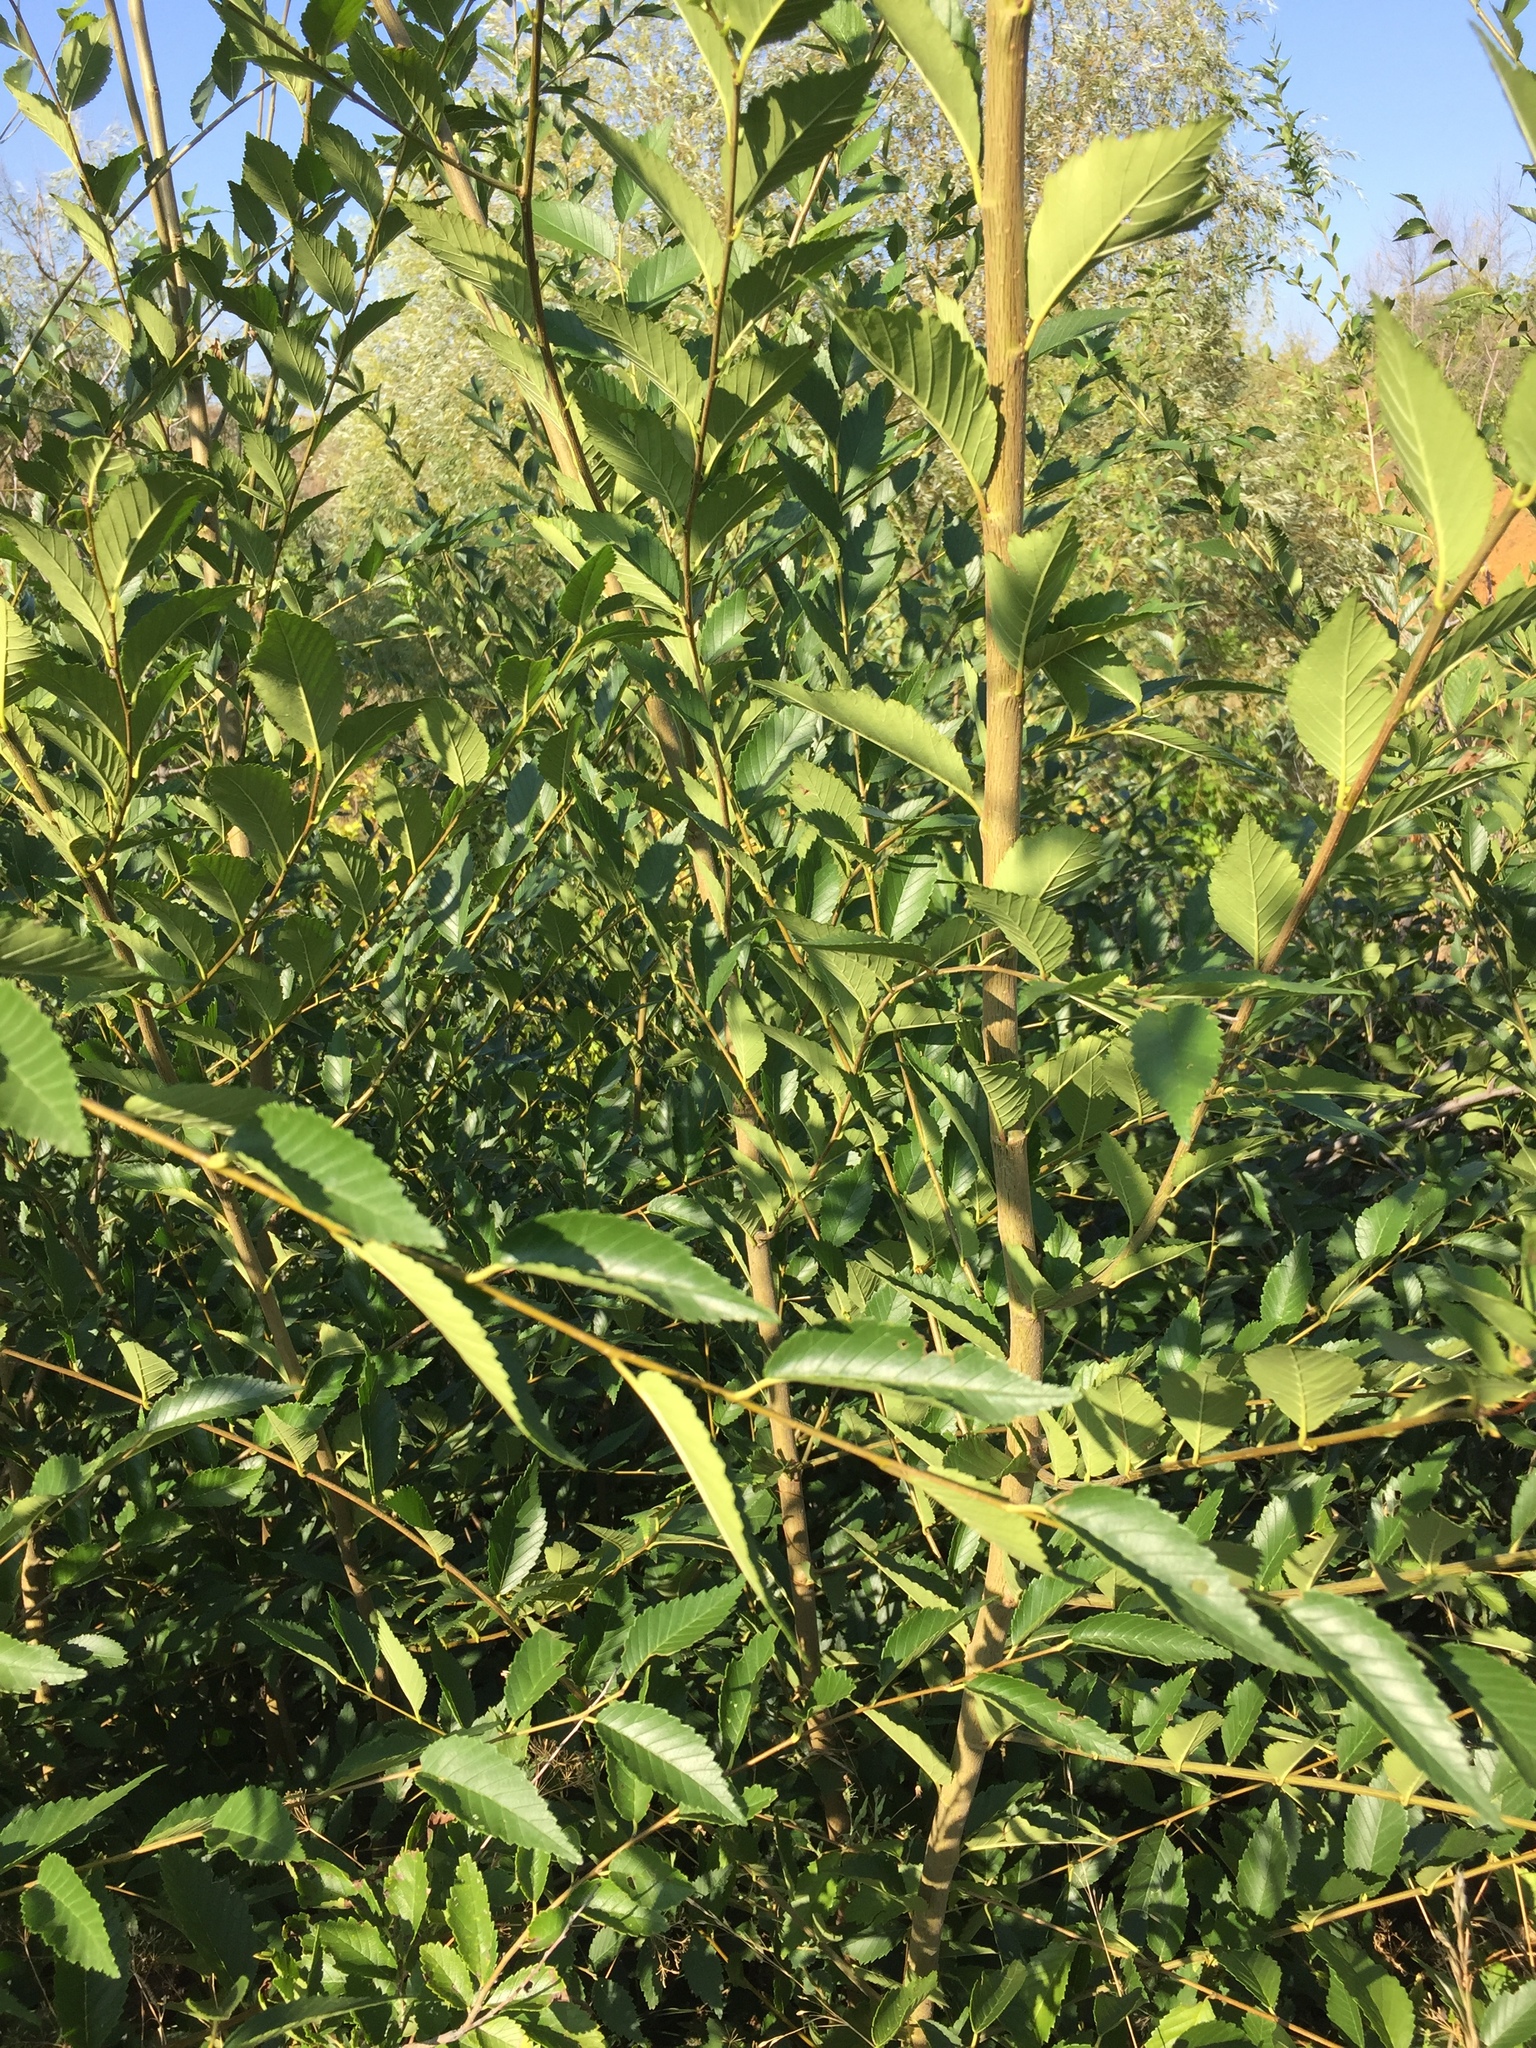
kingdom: Plantae
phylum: Tracheophyta
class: Magnoliopsida
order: Rosales
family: Ulmaceae
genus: Ulmus
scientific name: Ulmus pumila
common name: Siberian elm
